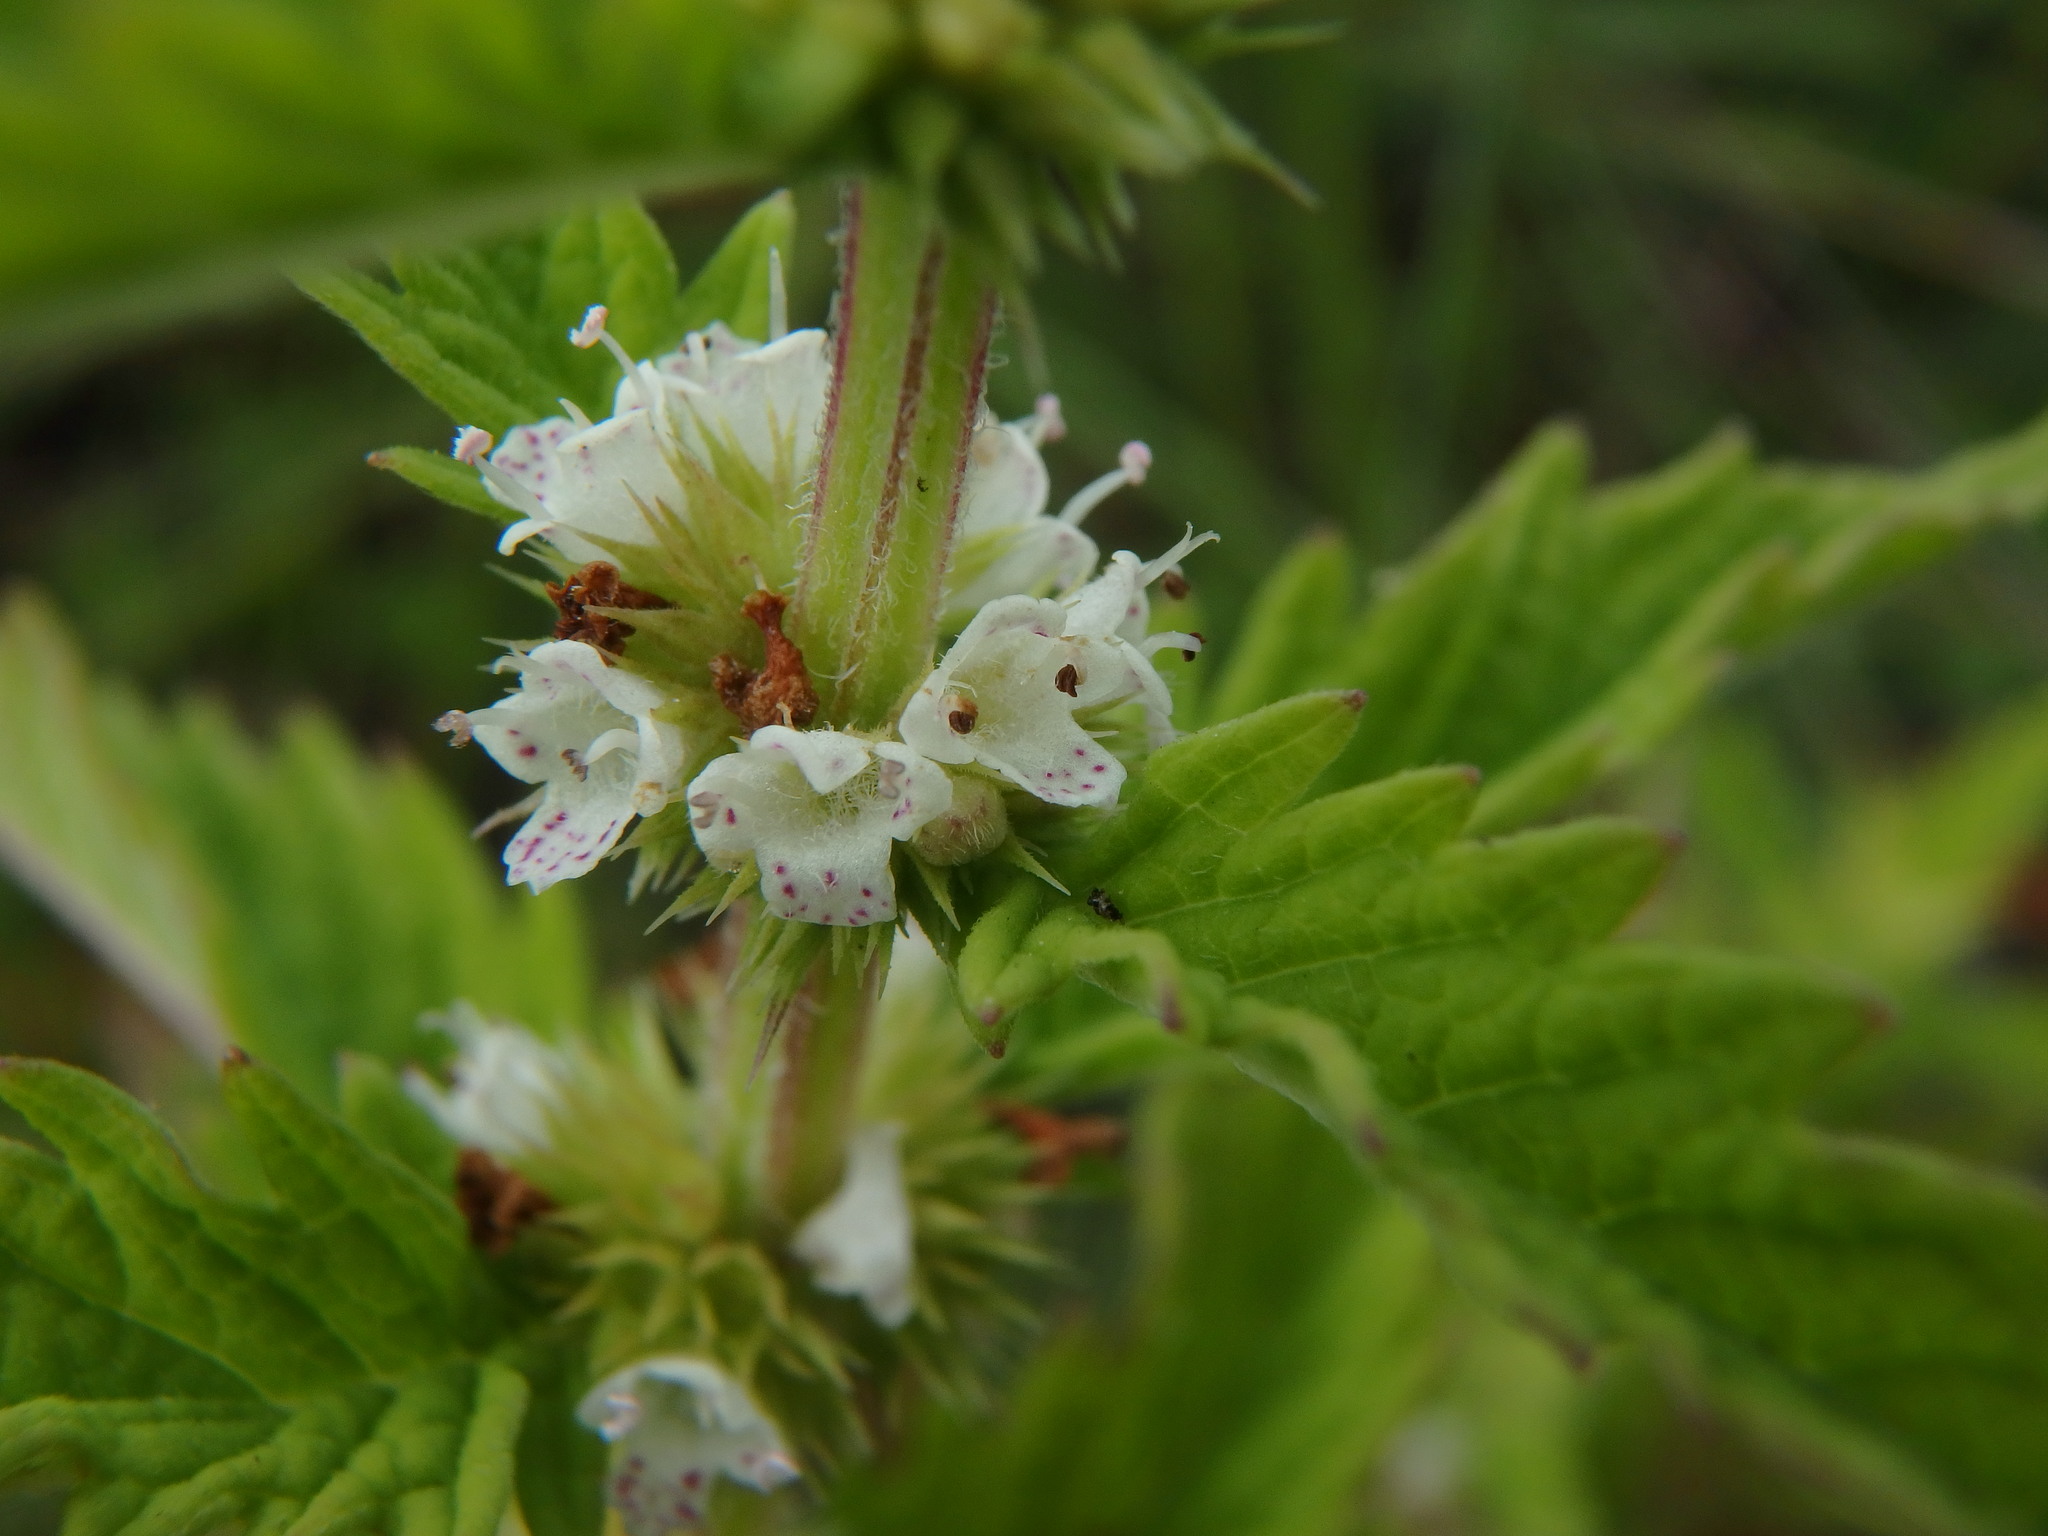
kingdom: Plantae
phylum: Tracheophyta
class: Magnoliopsida
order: Lamiales
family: Lamiaceae
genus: Lycopus
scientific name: Lycopus europaeus
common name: European bugleweed
